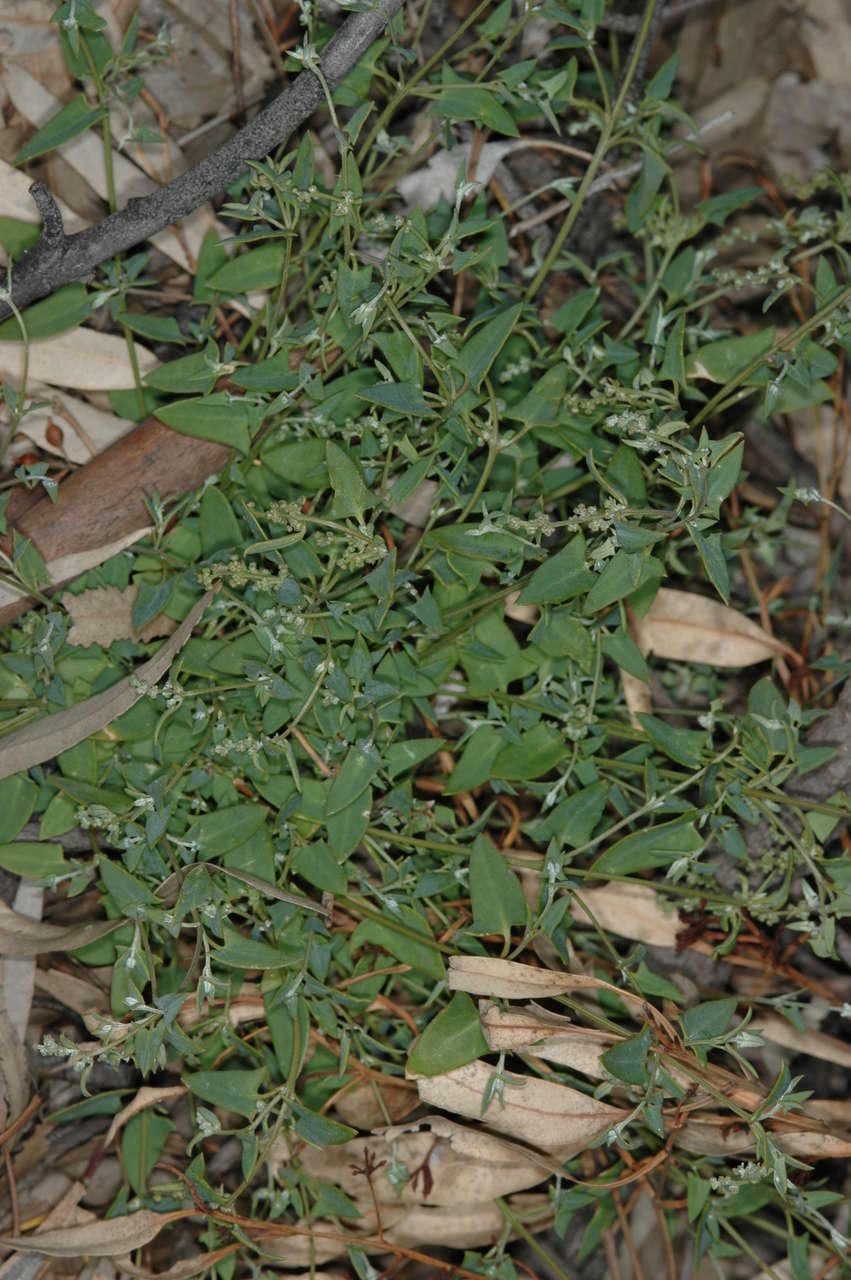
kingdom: Plantae
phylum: Tracheophyta
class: Magnoliopsida
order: Caryophyllales
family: Amaranthaceae
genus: Chenopodium
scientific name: Chenopodium nutans
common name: Climbing-saltbush
